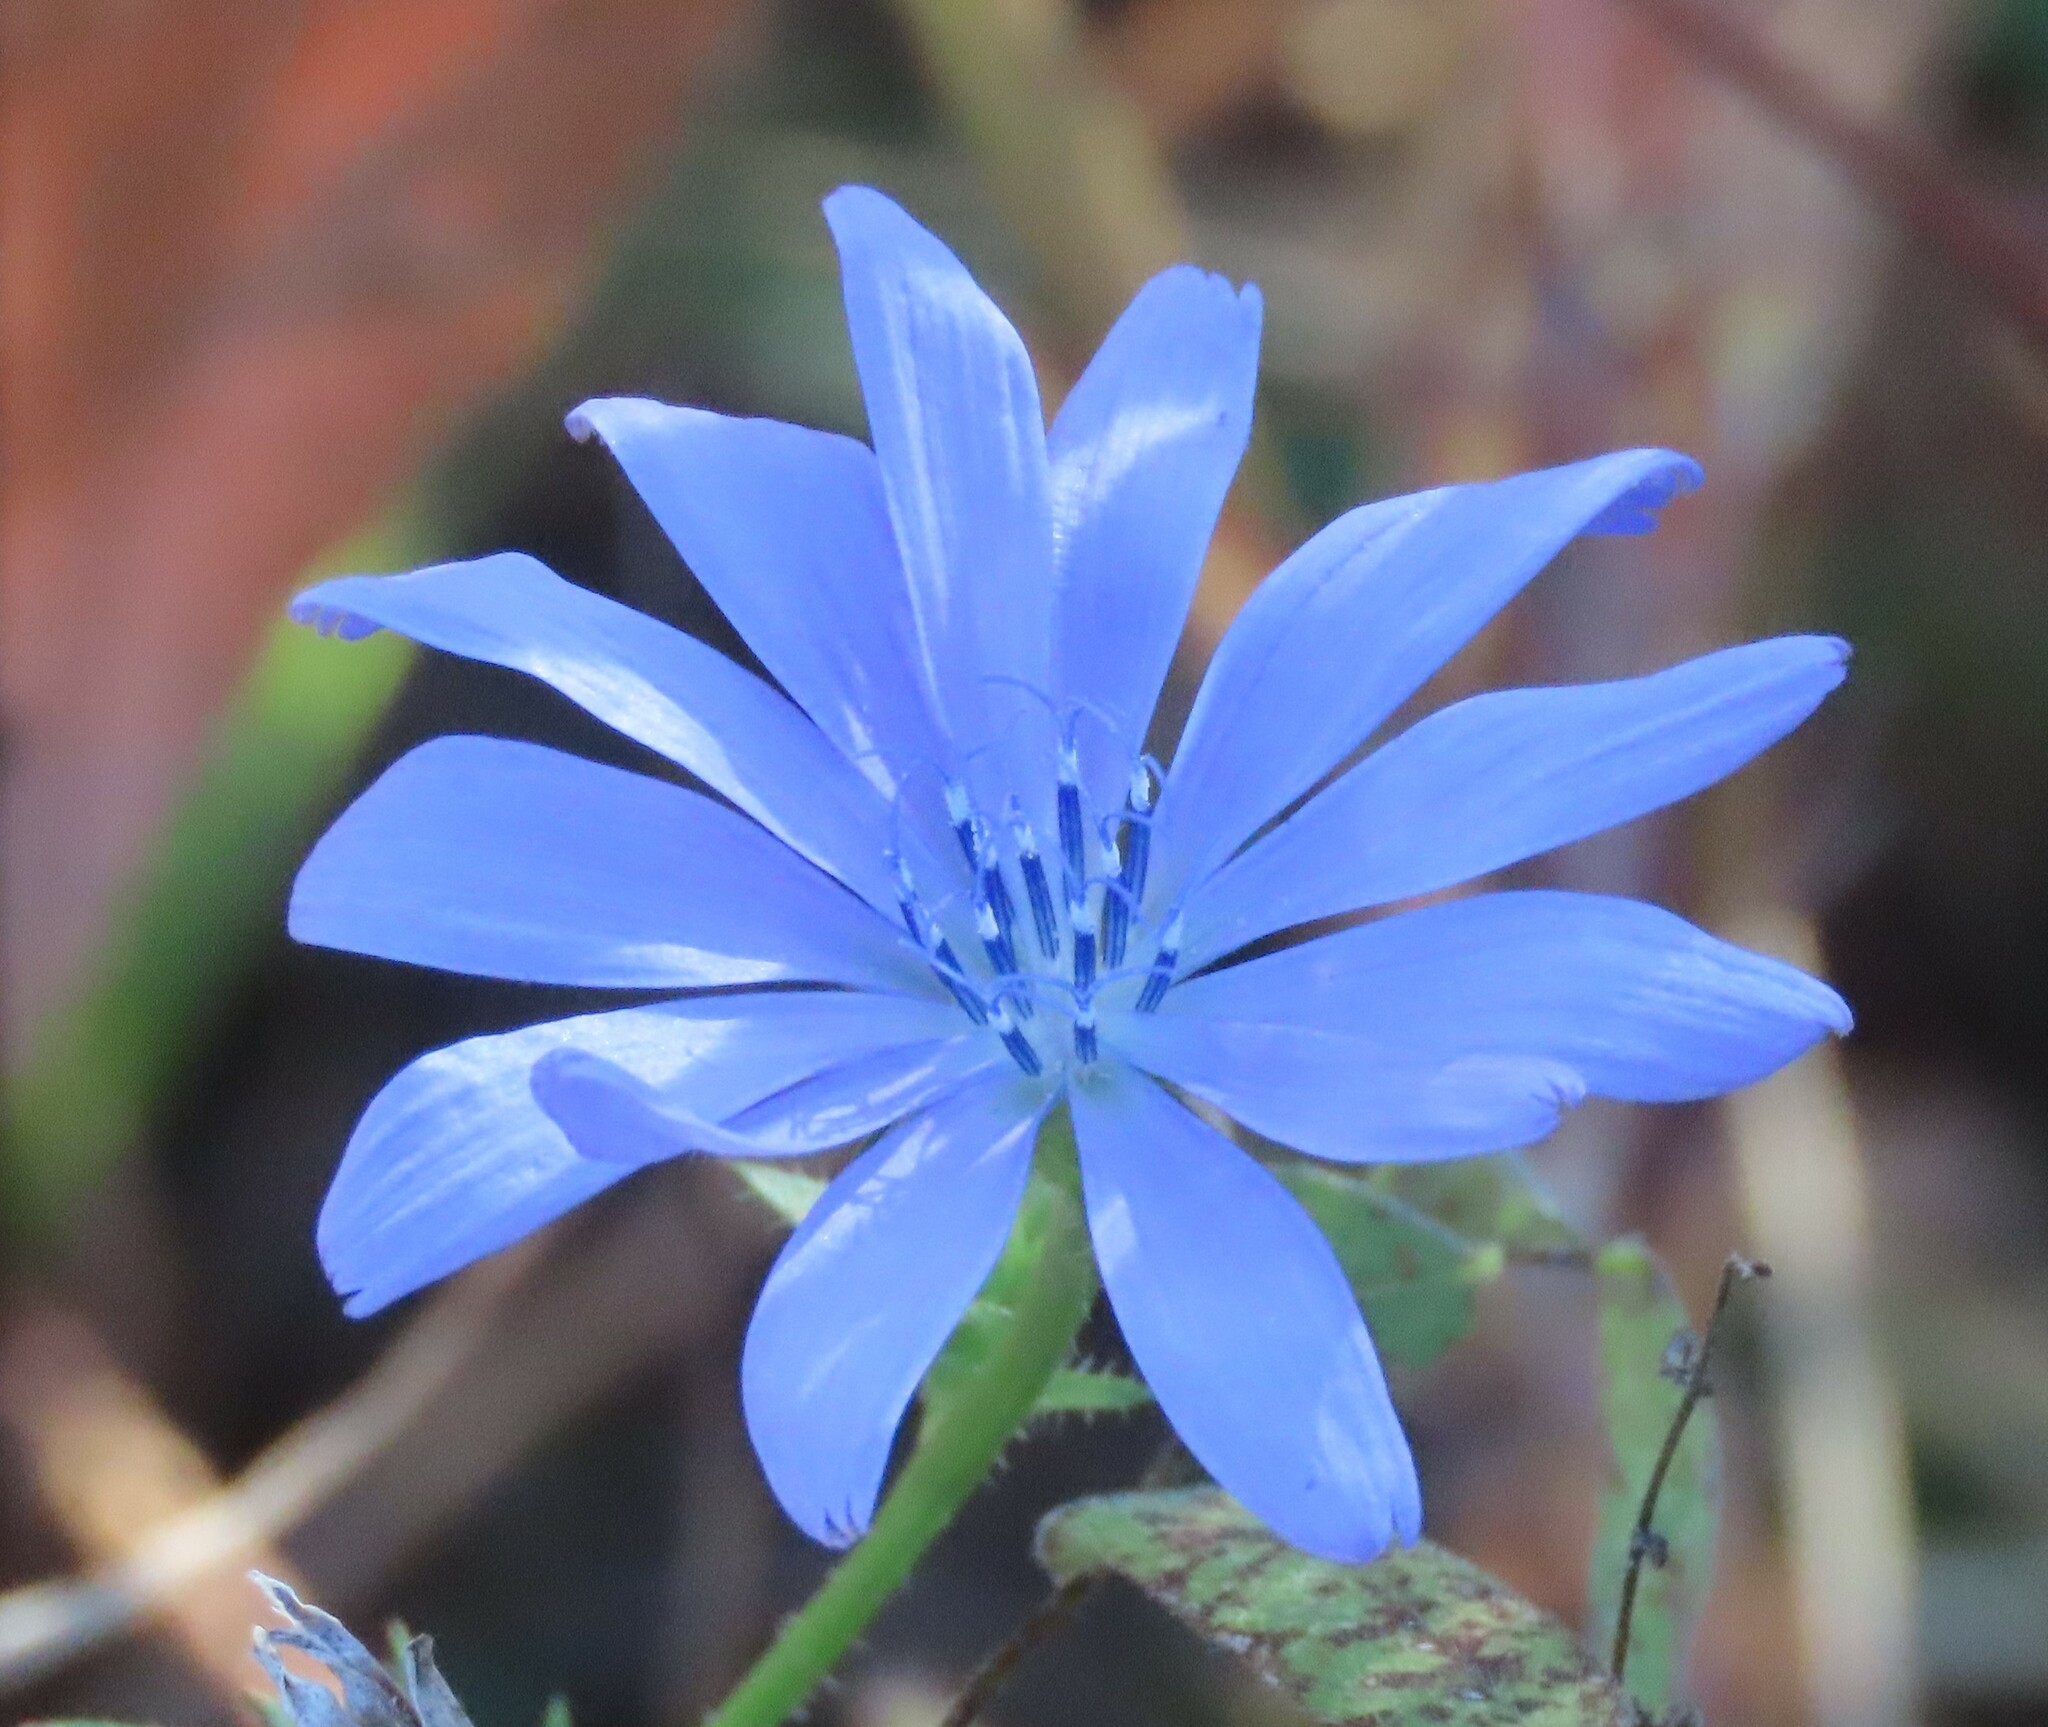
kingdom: Plantae
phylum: Tracheophyta
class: Magnoliopsida
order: Asterales
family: Asteraceae
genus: Cichorium
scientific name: Cichorium intybus
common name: Chicory
